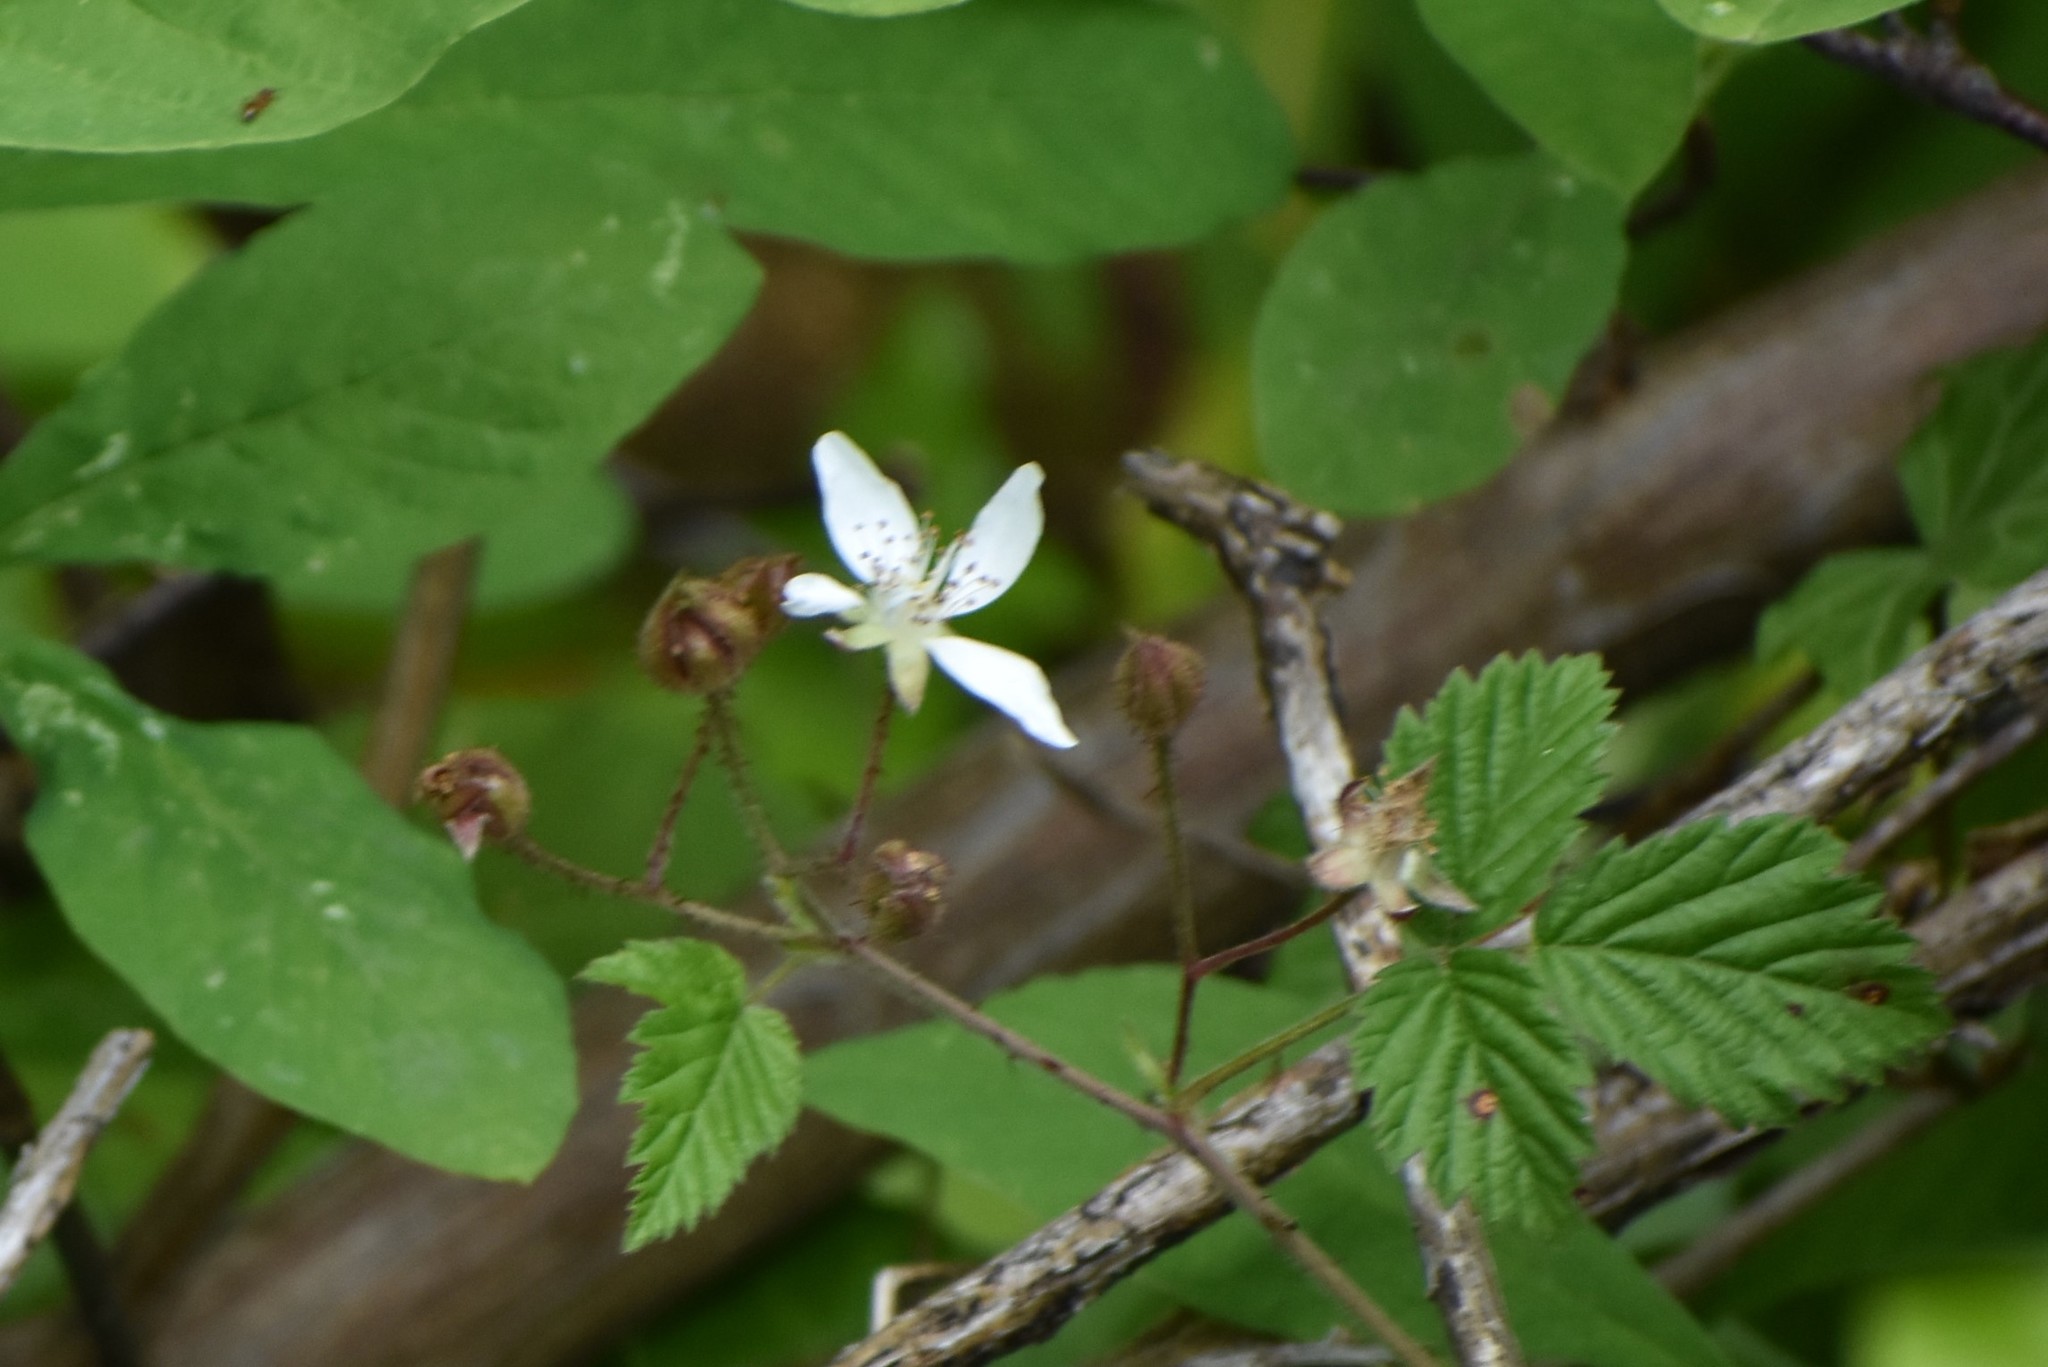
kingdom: Plantae
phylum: Tracheophyta
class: Magnoliopsida
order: Rosales
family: Rosaceae
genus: Rubus
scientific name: Rubus ursinus
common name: Pacific blackberry
